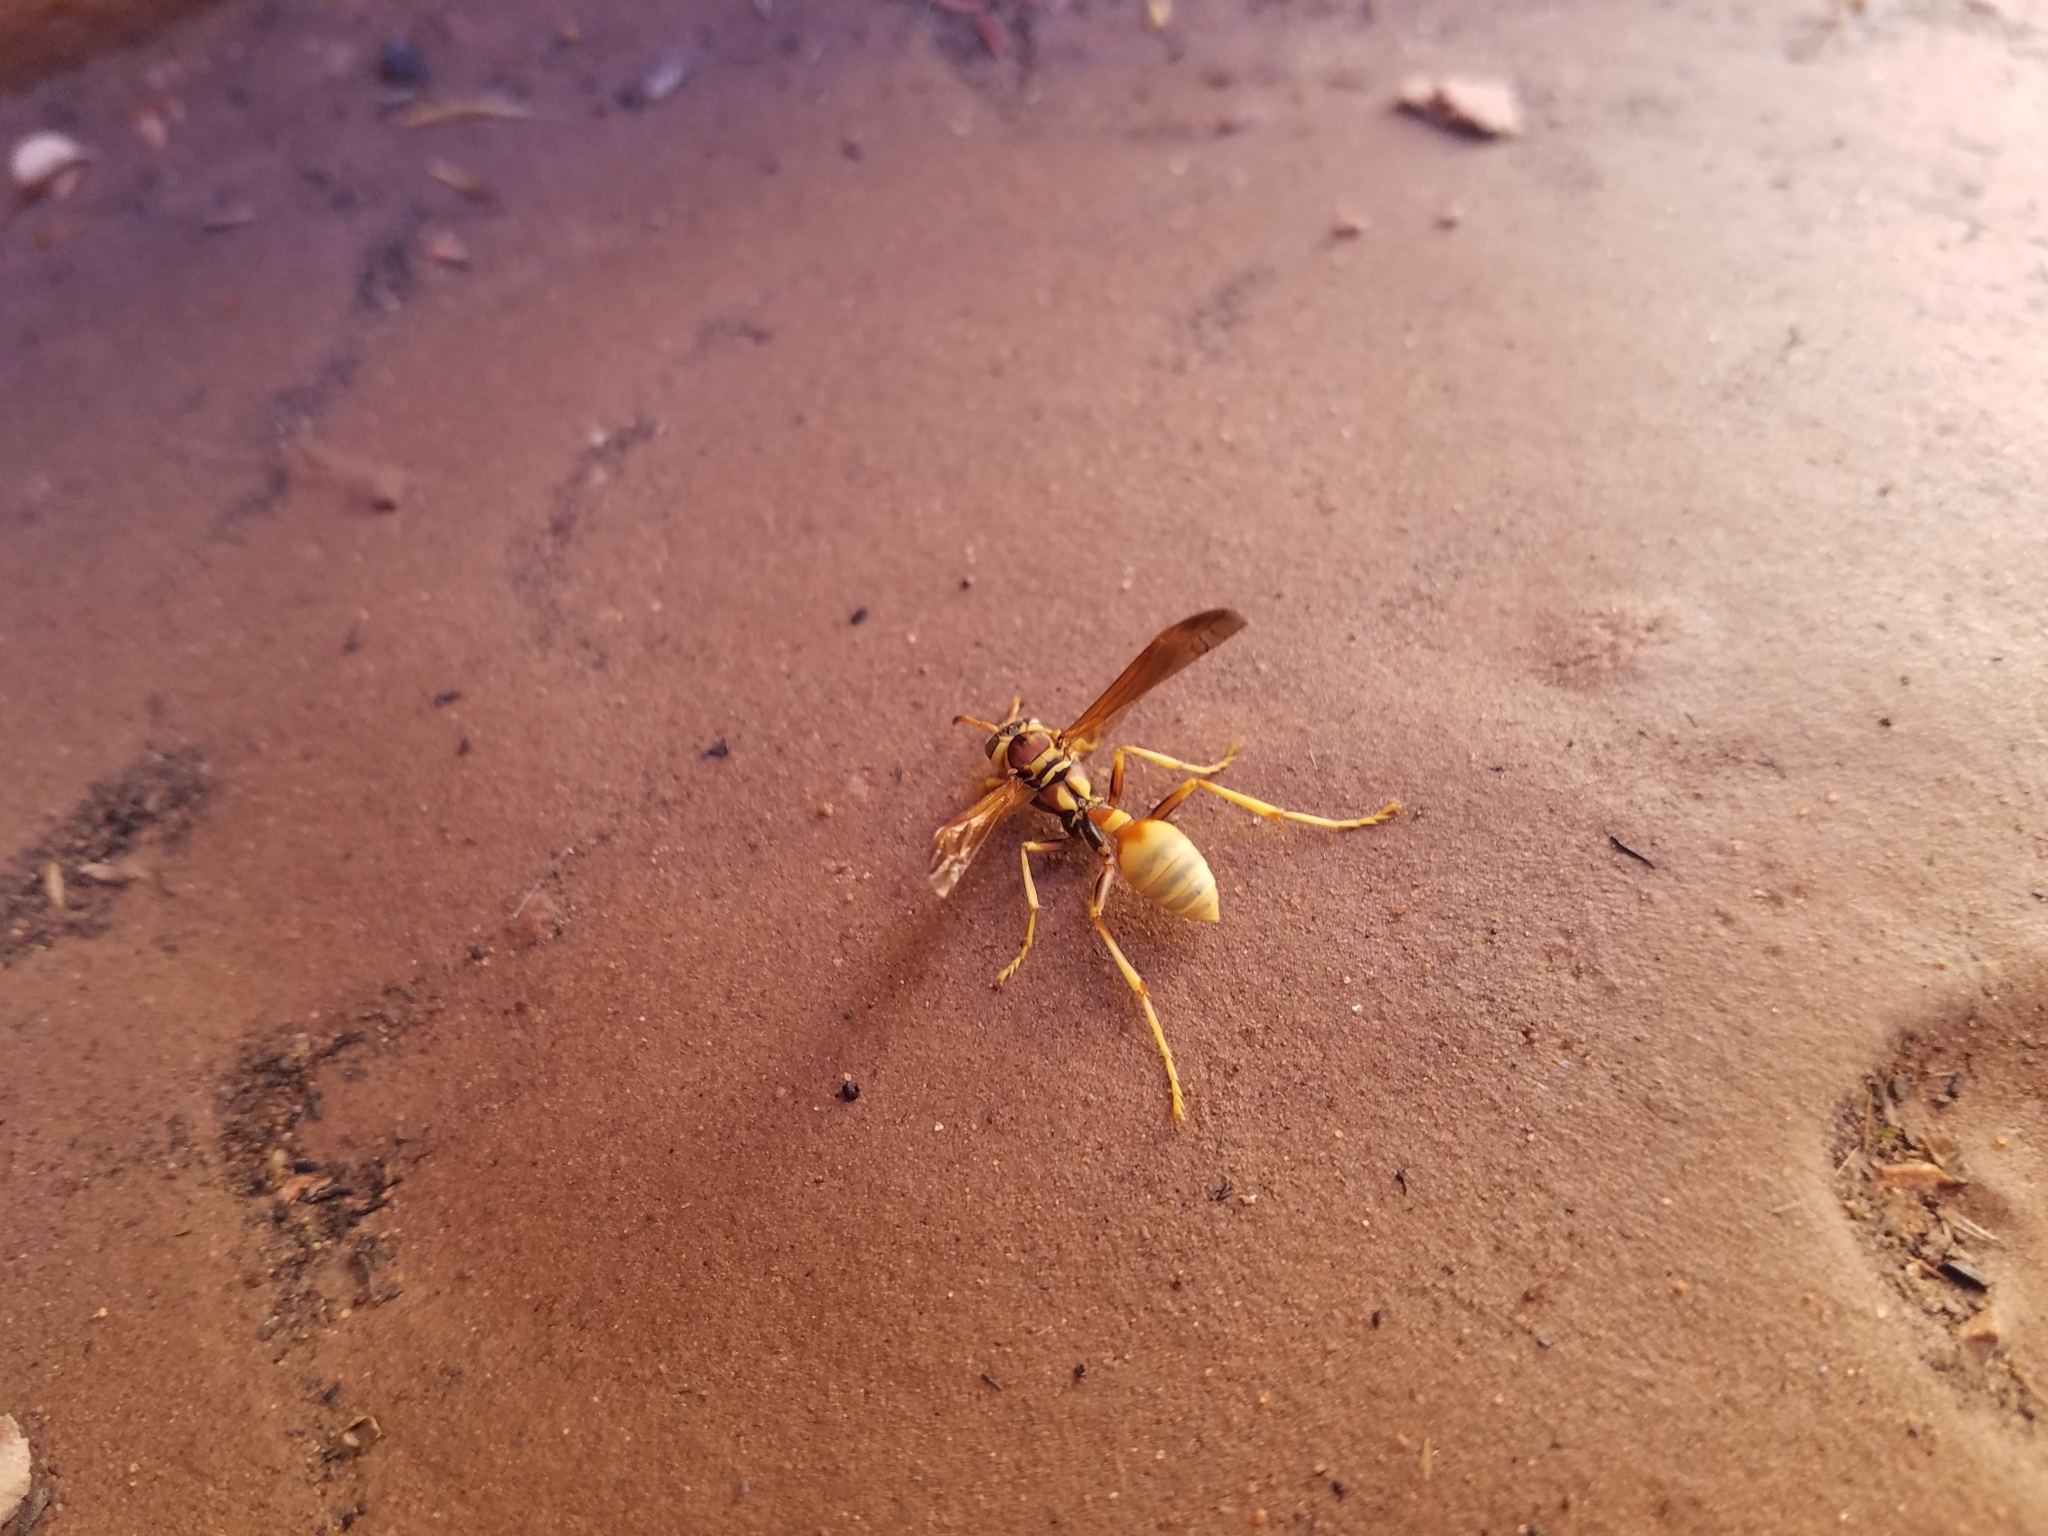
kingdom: Animalia
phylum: Arthropoda
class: Insecta
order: Hymenoptera
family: Vespidae
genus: Mischocyttarus
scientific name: Mischocyttarus flavitarsis
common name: Wasp
